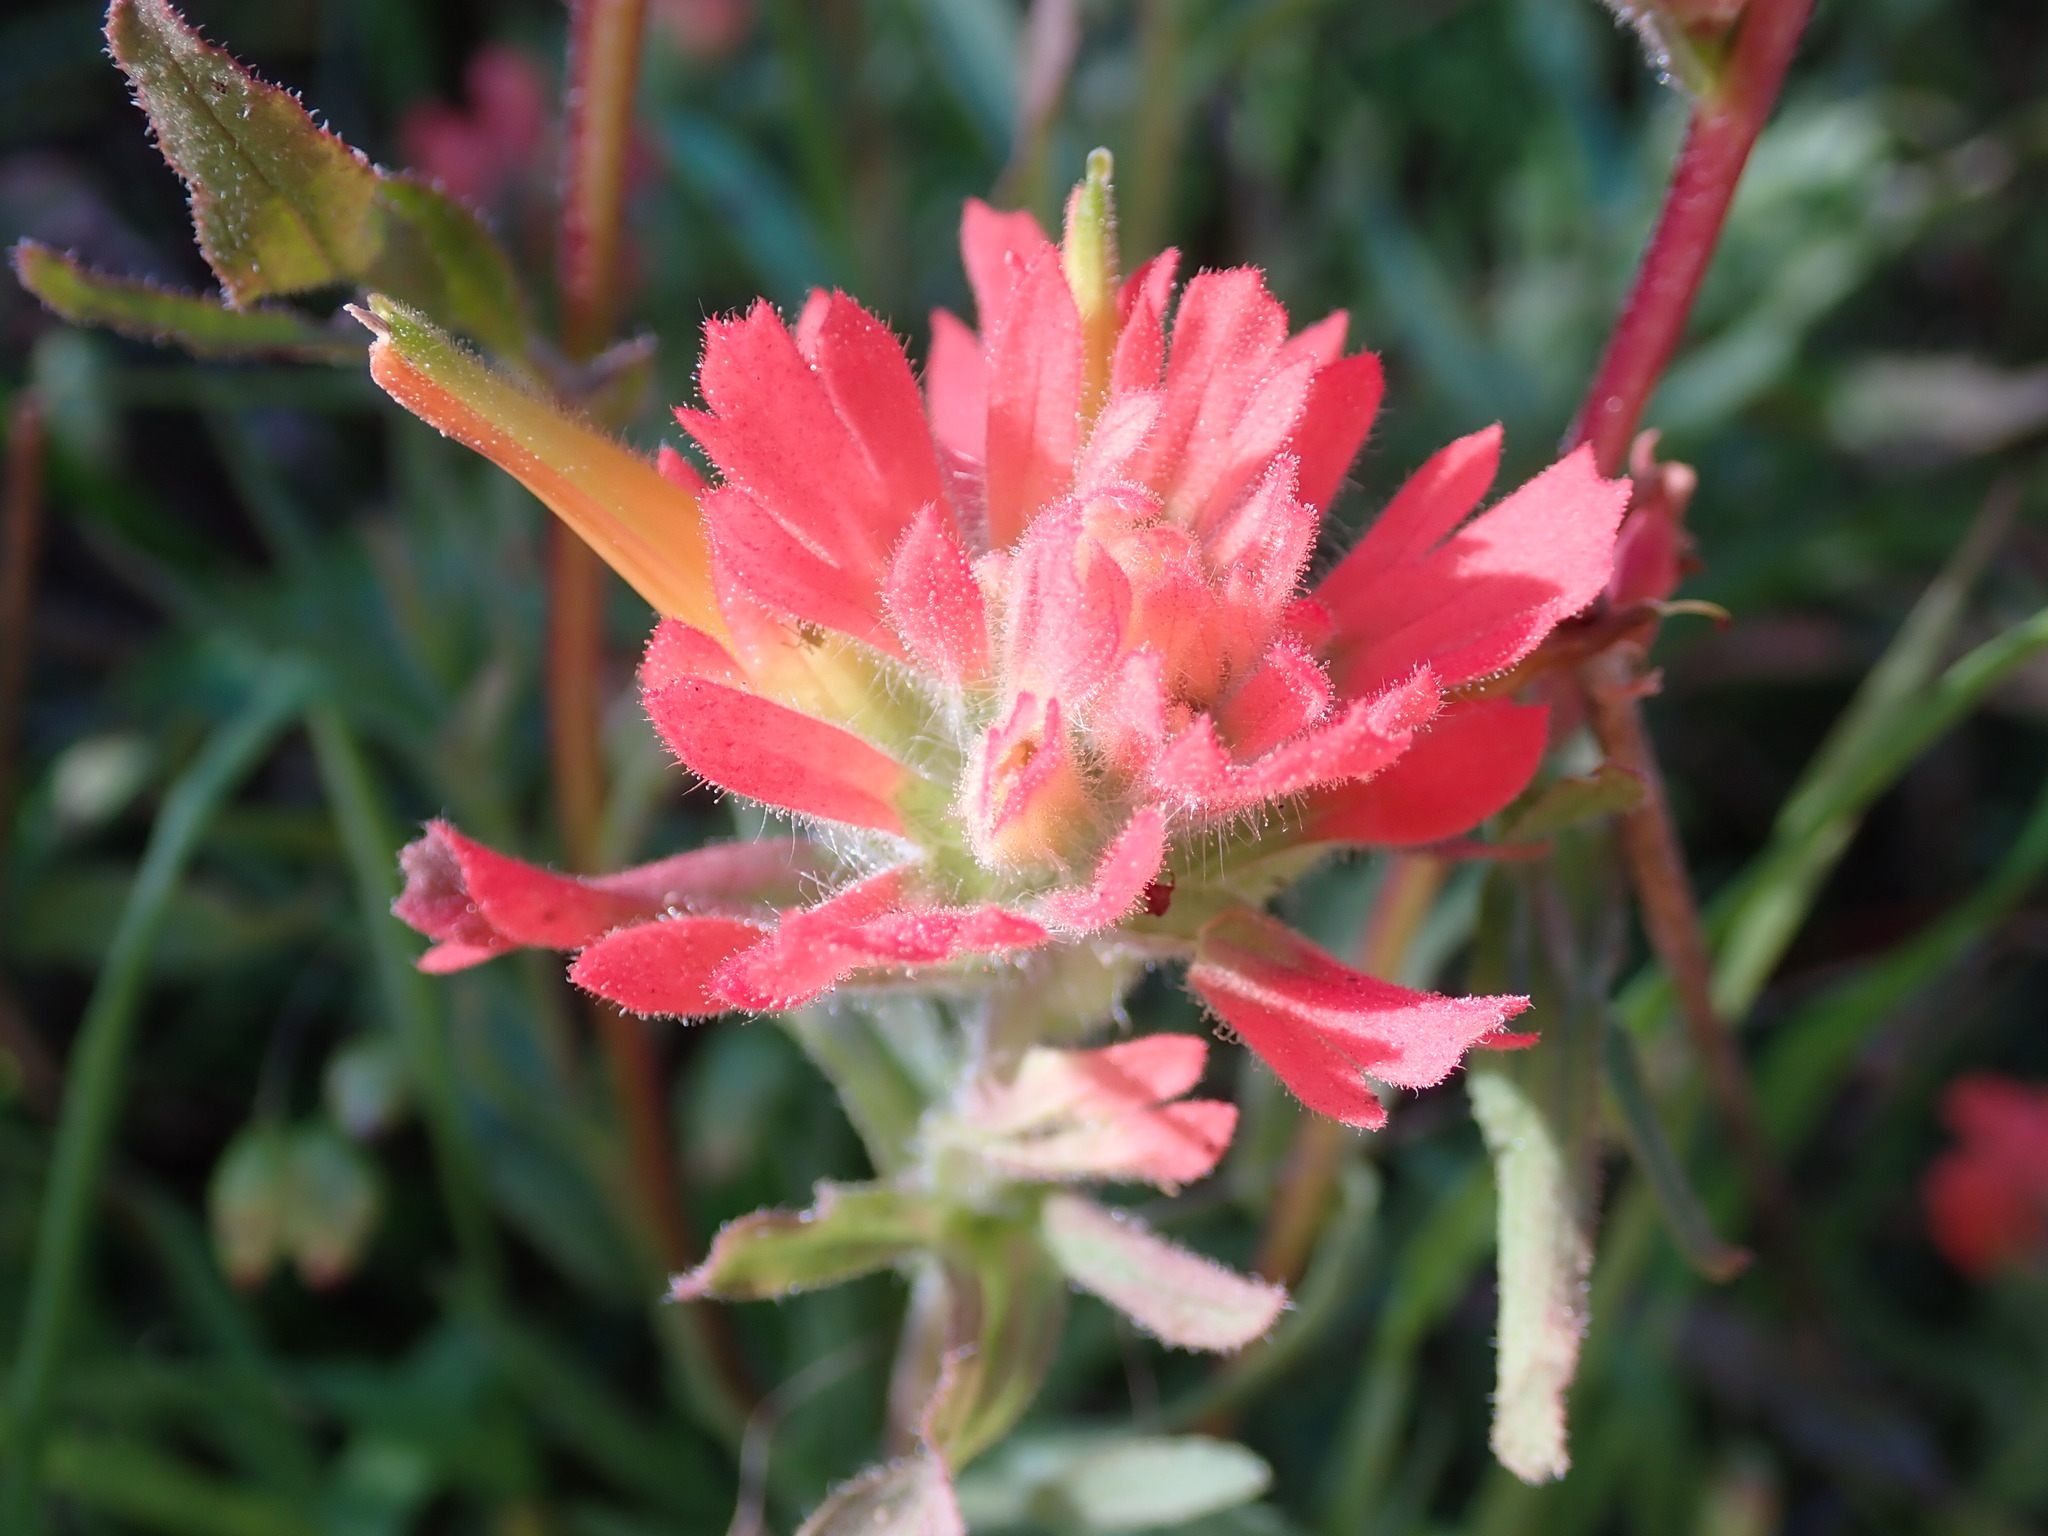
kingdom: Plantae
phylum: Tracheophyta
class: Magnoliopsida
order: Lamiales
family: Orobanchaceae
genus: Castilleja
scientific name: Castilleja affinis
